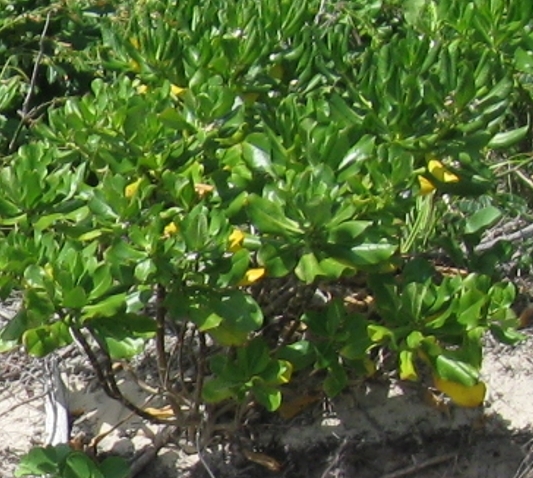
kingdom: Plantae
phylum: Tracheophyta
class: Magnoliopsida
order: Asterales
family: Goodeniaceae
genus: Scaevola
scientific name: Scaevola taccada
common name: Sea lettucetree
